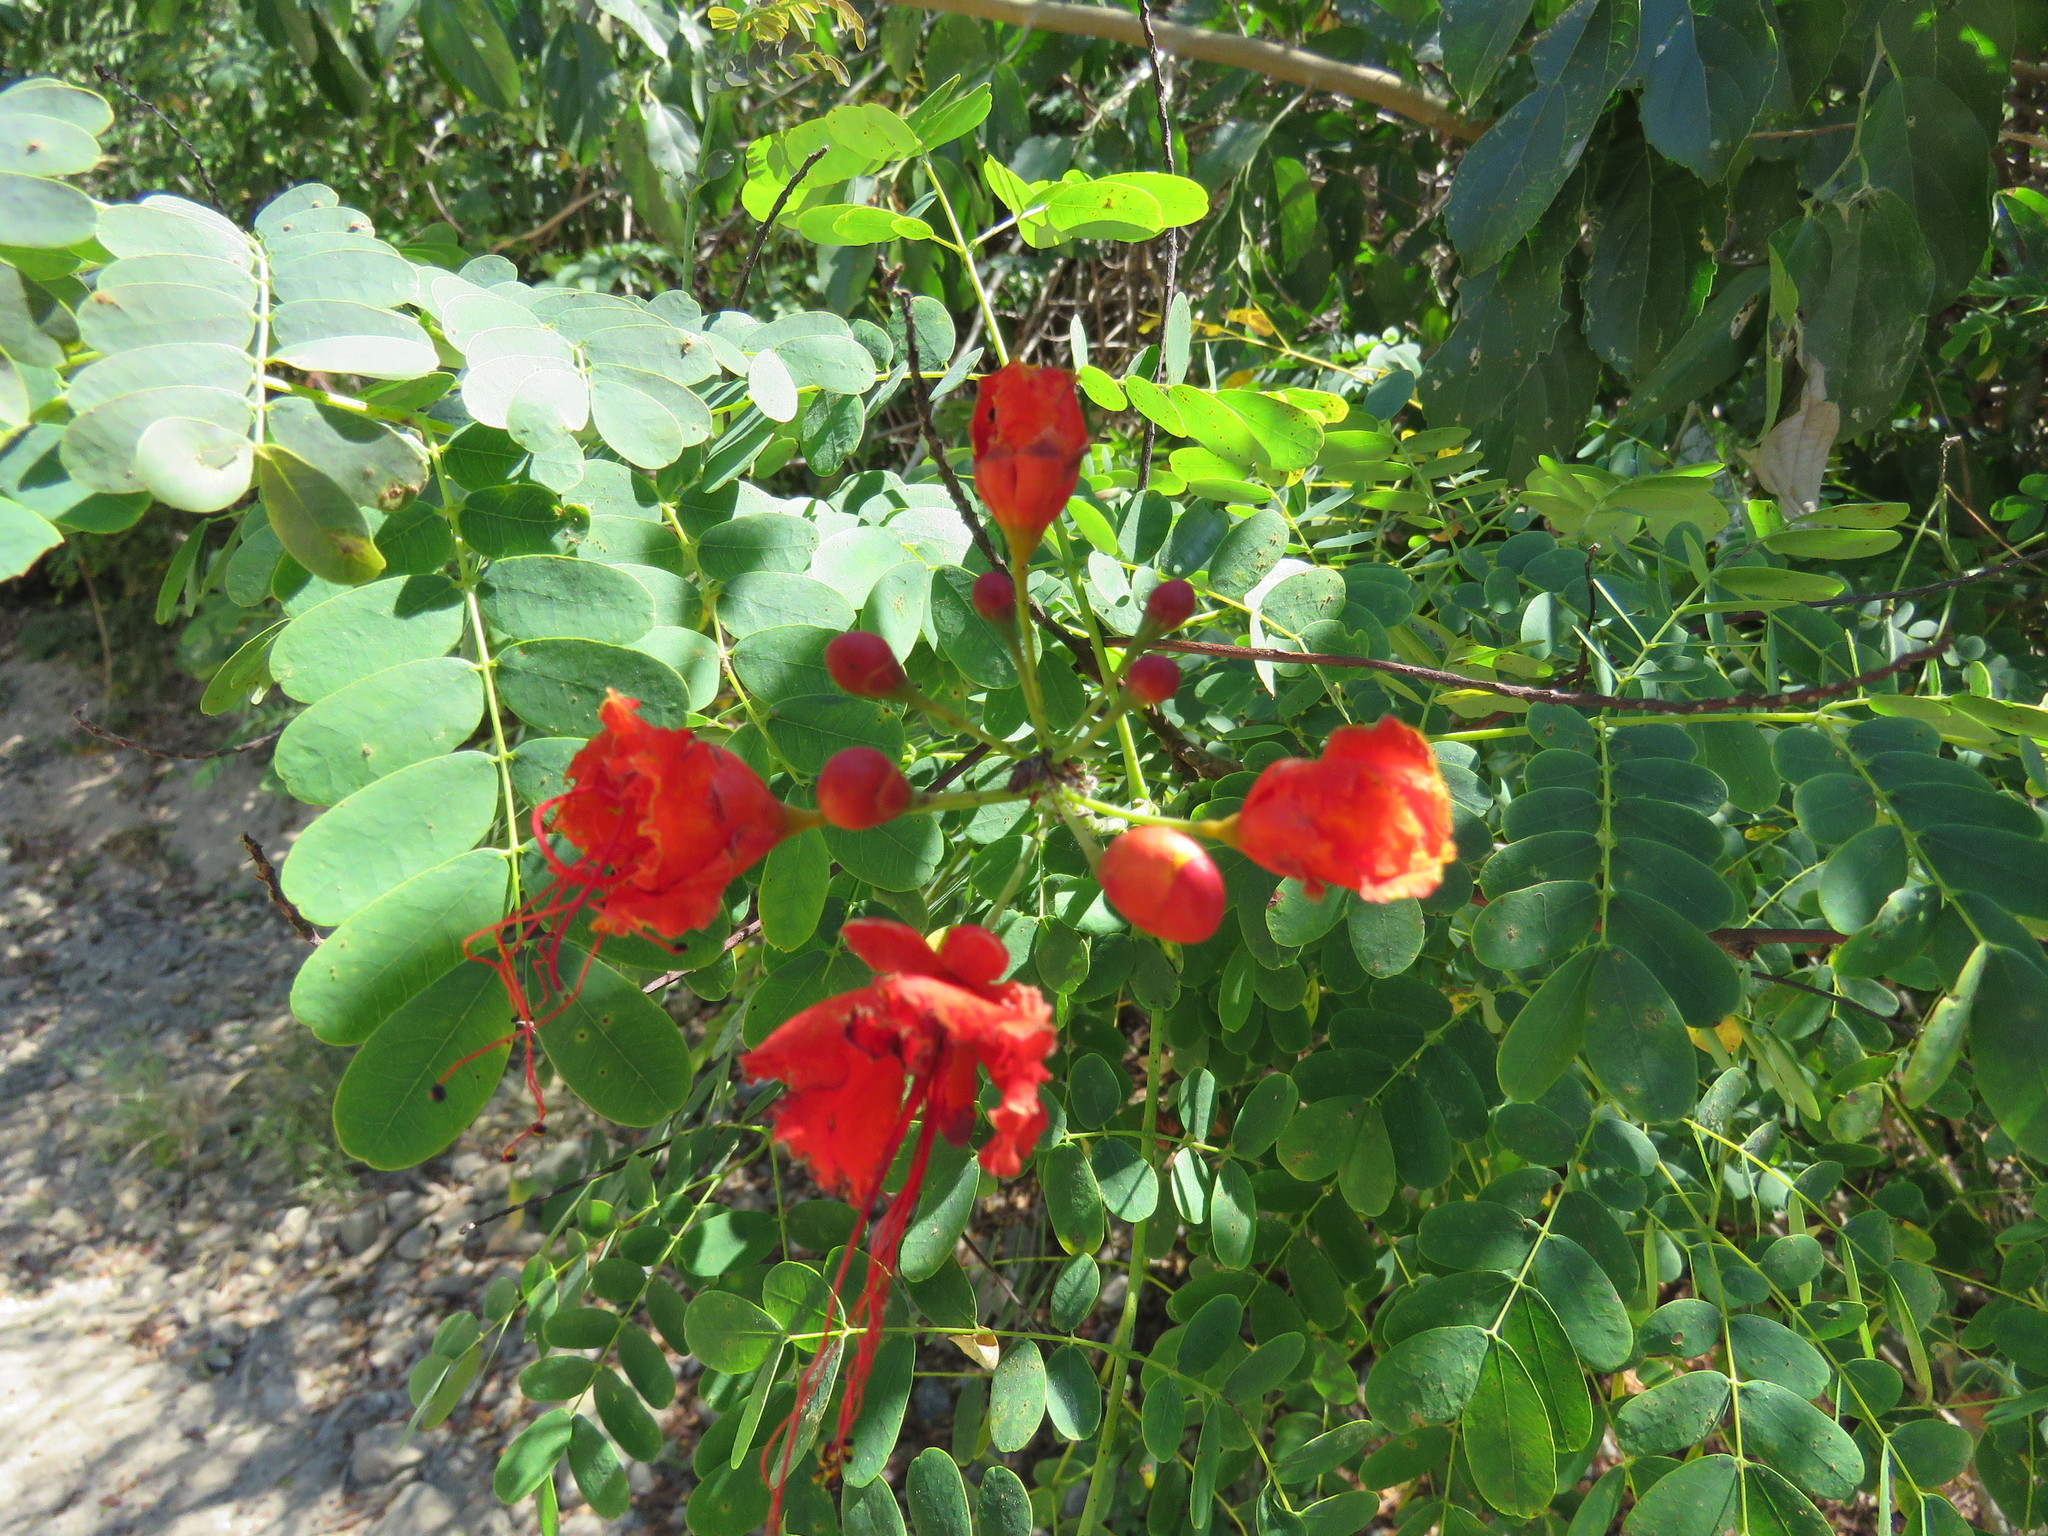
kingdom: Plantae
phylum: Tracheophyta
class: Magnoliopsida
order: Fabales
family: Fabaceae
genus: Caesalpinia
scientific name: Caesalpinia pulcherrima
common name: Pride-of-barbados
